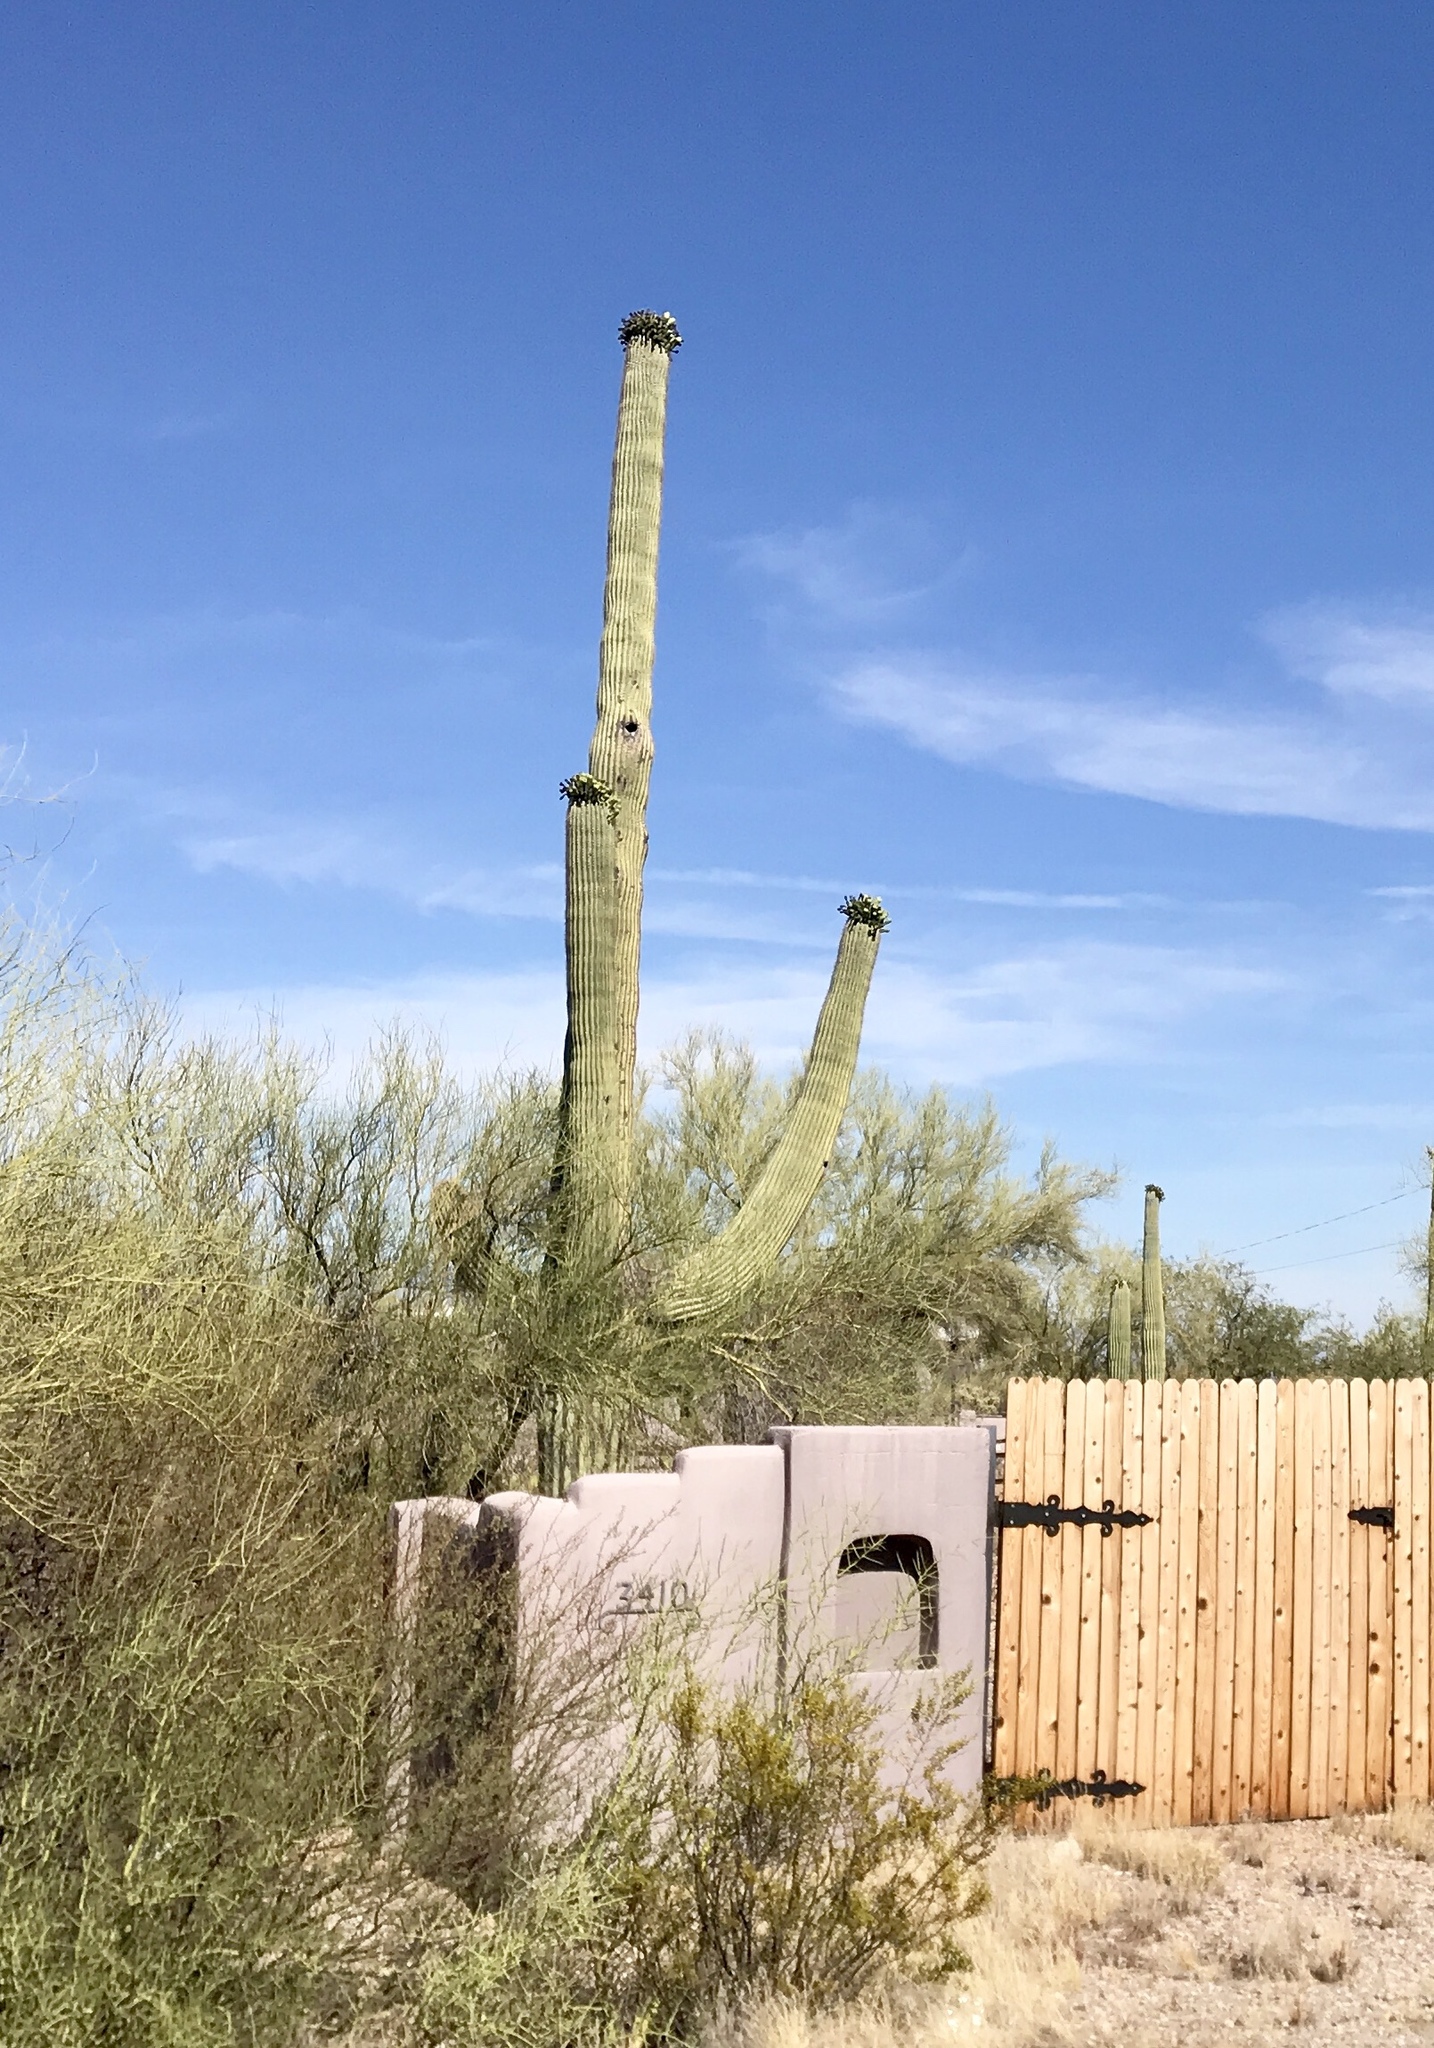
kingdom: Plantae
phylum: Tracheophyta
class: Magnoliopsida
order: Caryophyllales
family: Cactaceae
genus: Carnegiea
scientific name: Carnegiea gigantea
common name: Saguaro
